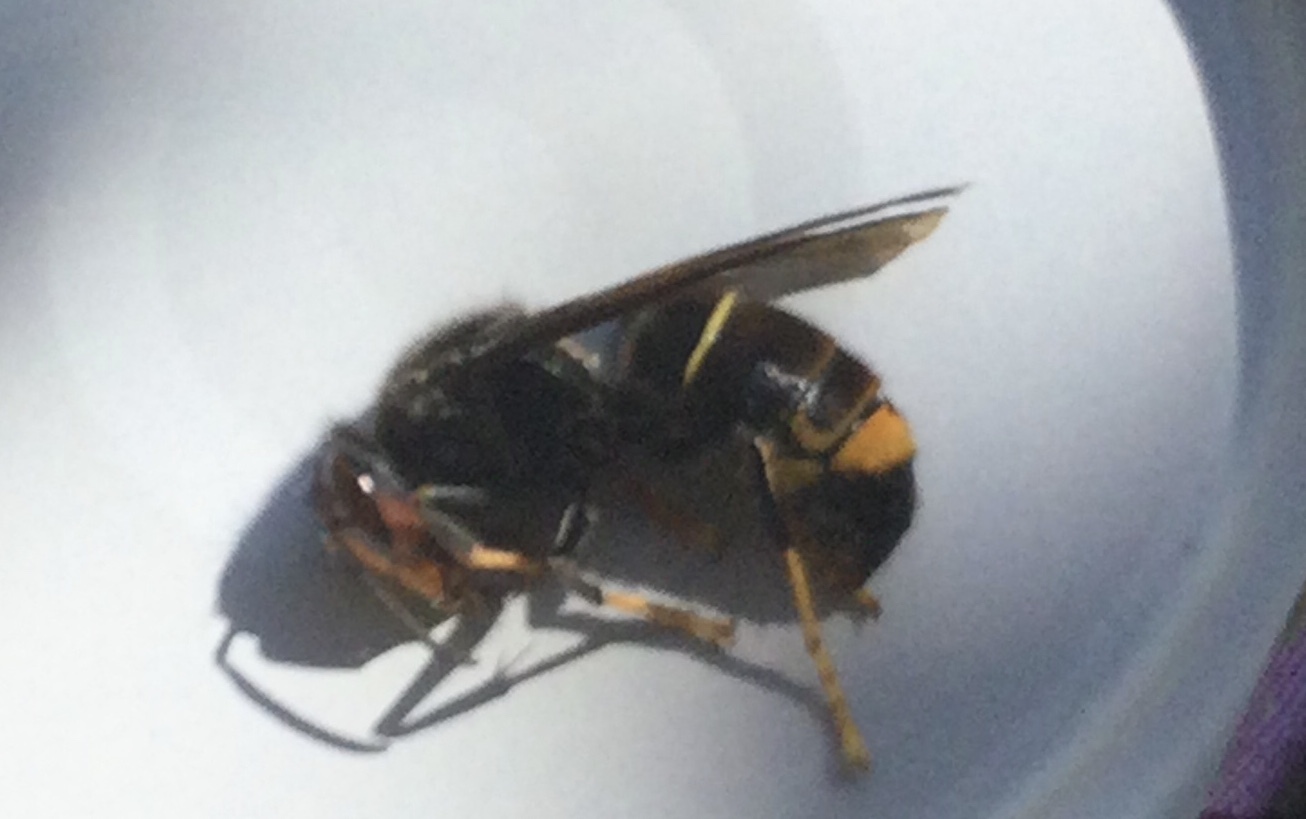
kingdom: Animalia
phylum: Arthropoda
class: Insecta
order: Hymenoptera
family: Vespidae
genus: Vespa
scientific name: Vespa velutina
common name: Asian hornet
